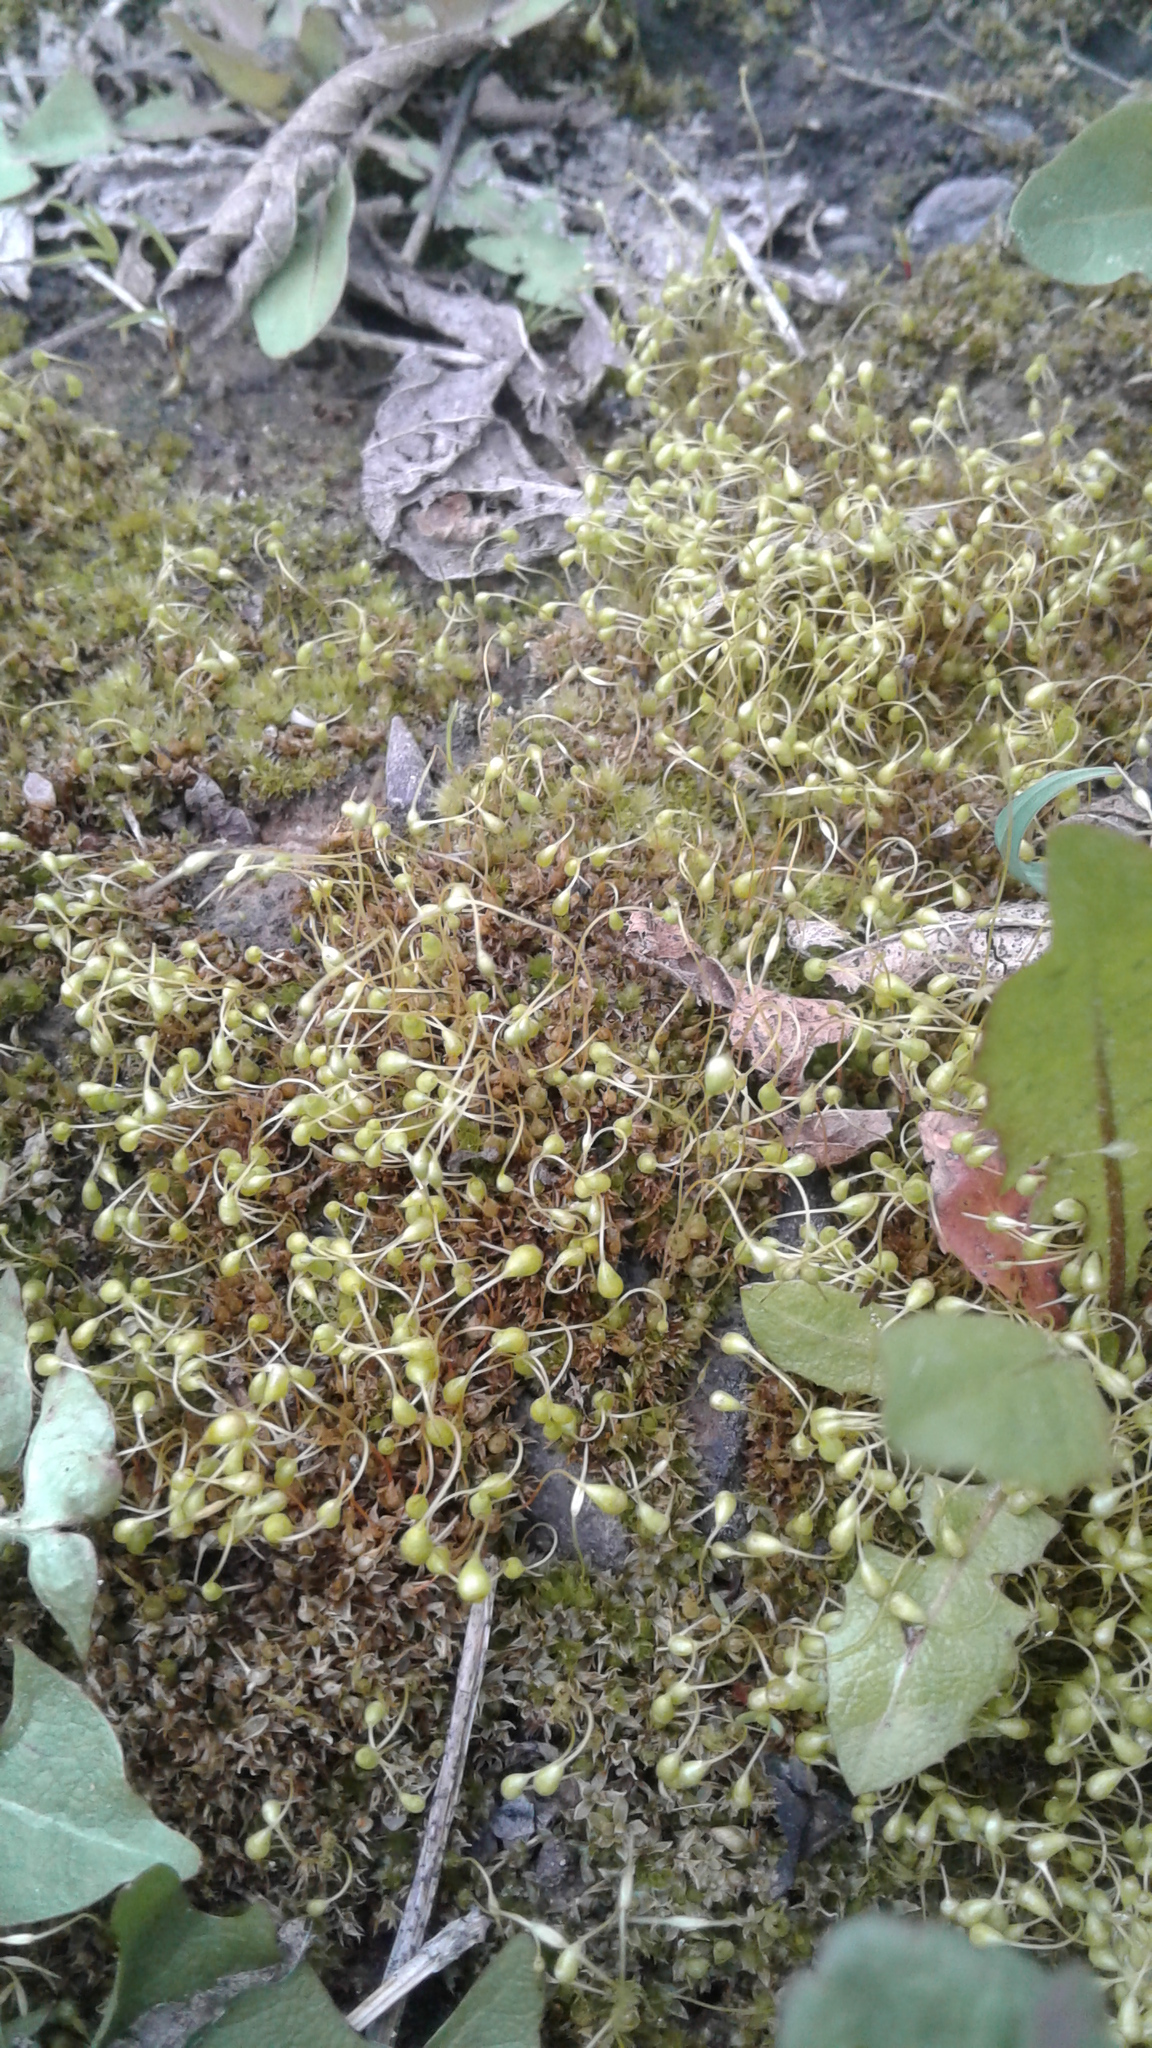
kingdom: Plantae
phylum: Bryophyta
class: Bryopsida
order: Funariales
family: Funariaceae
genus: Funaria
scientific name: Funaria hygrometrica
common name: Common cord moss
